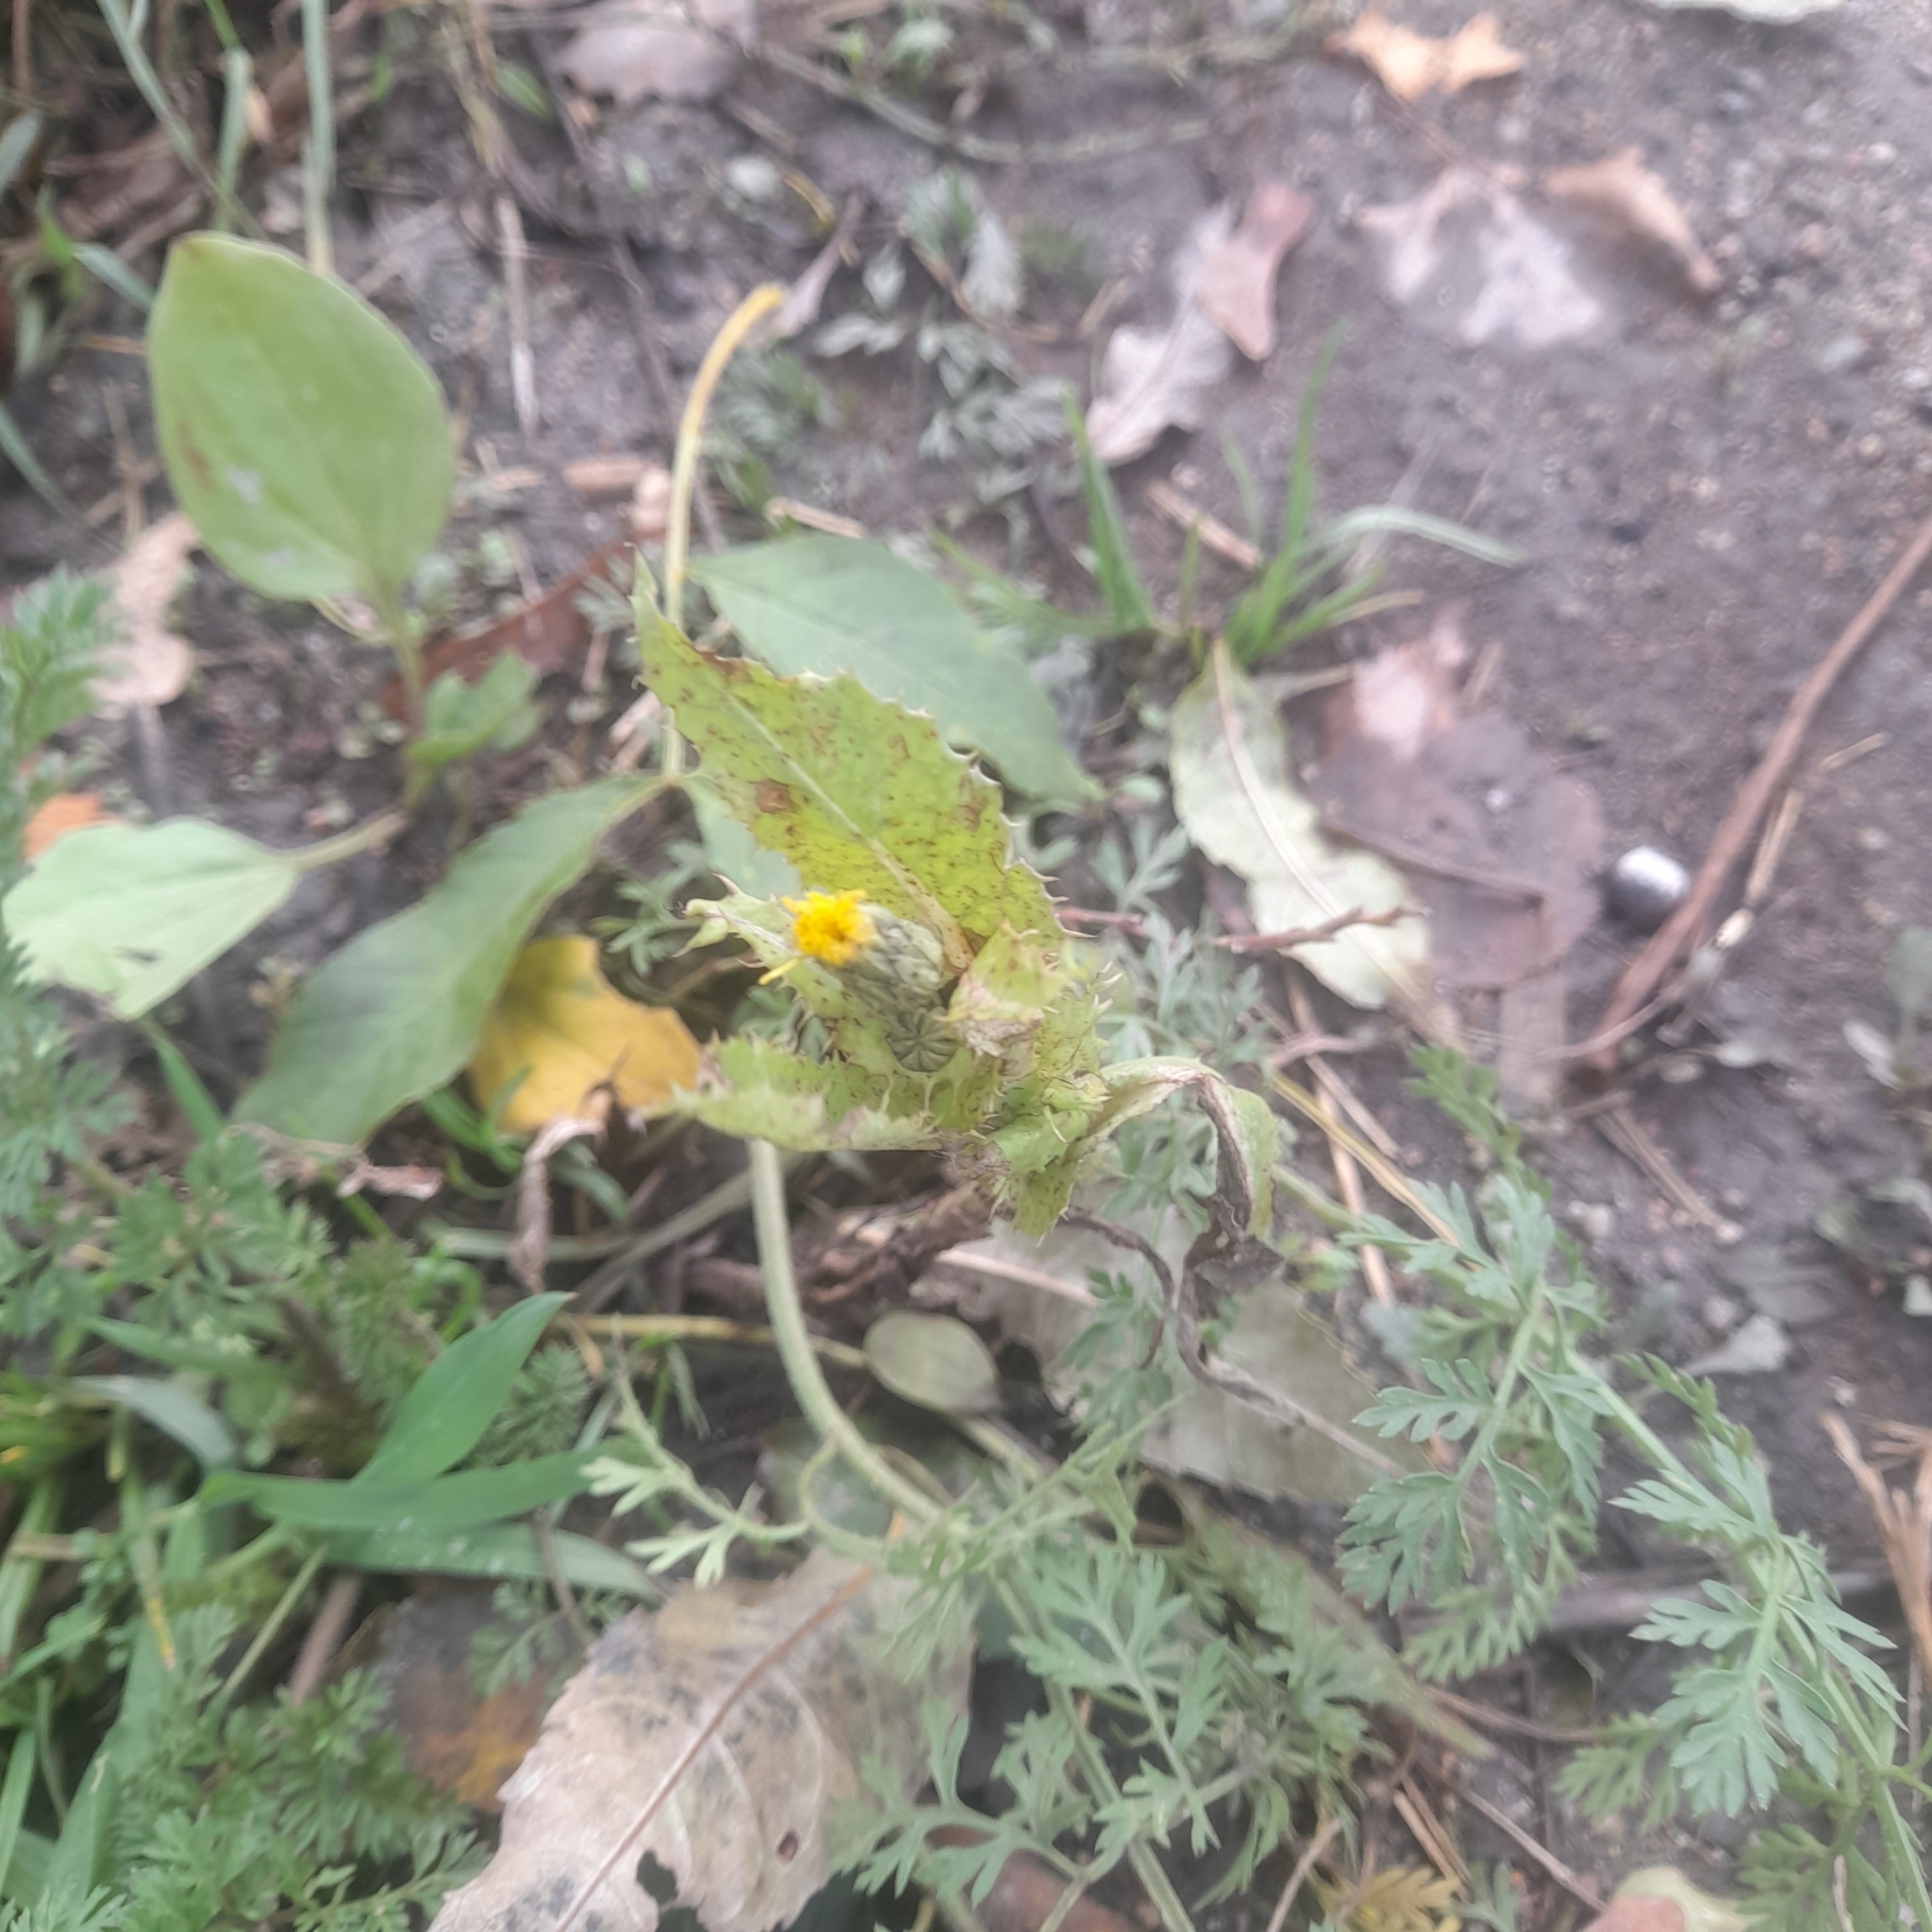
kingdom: Plantae
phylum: Tracheophyta
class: Magnoliopsida
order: Asterales
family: Asteraceae
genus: Sonchus
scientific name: Sonchus asper
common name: Prickly sow-thistle
